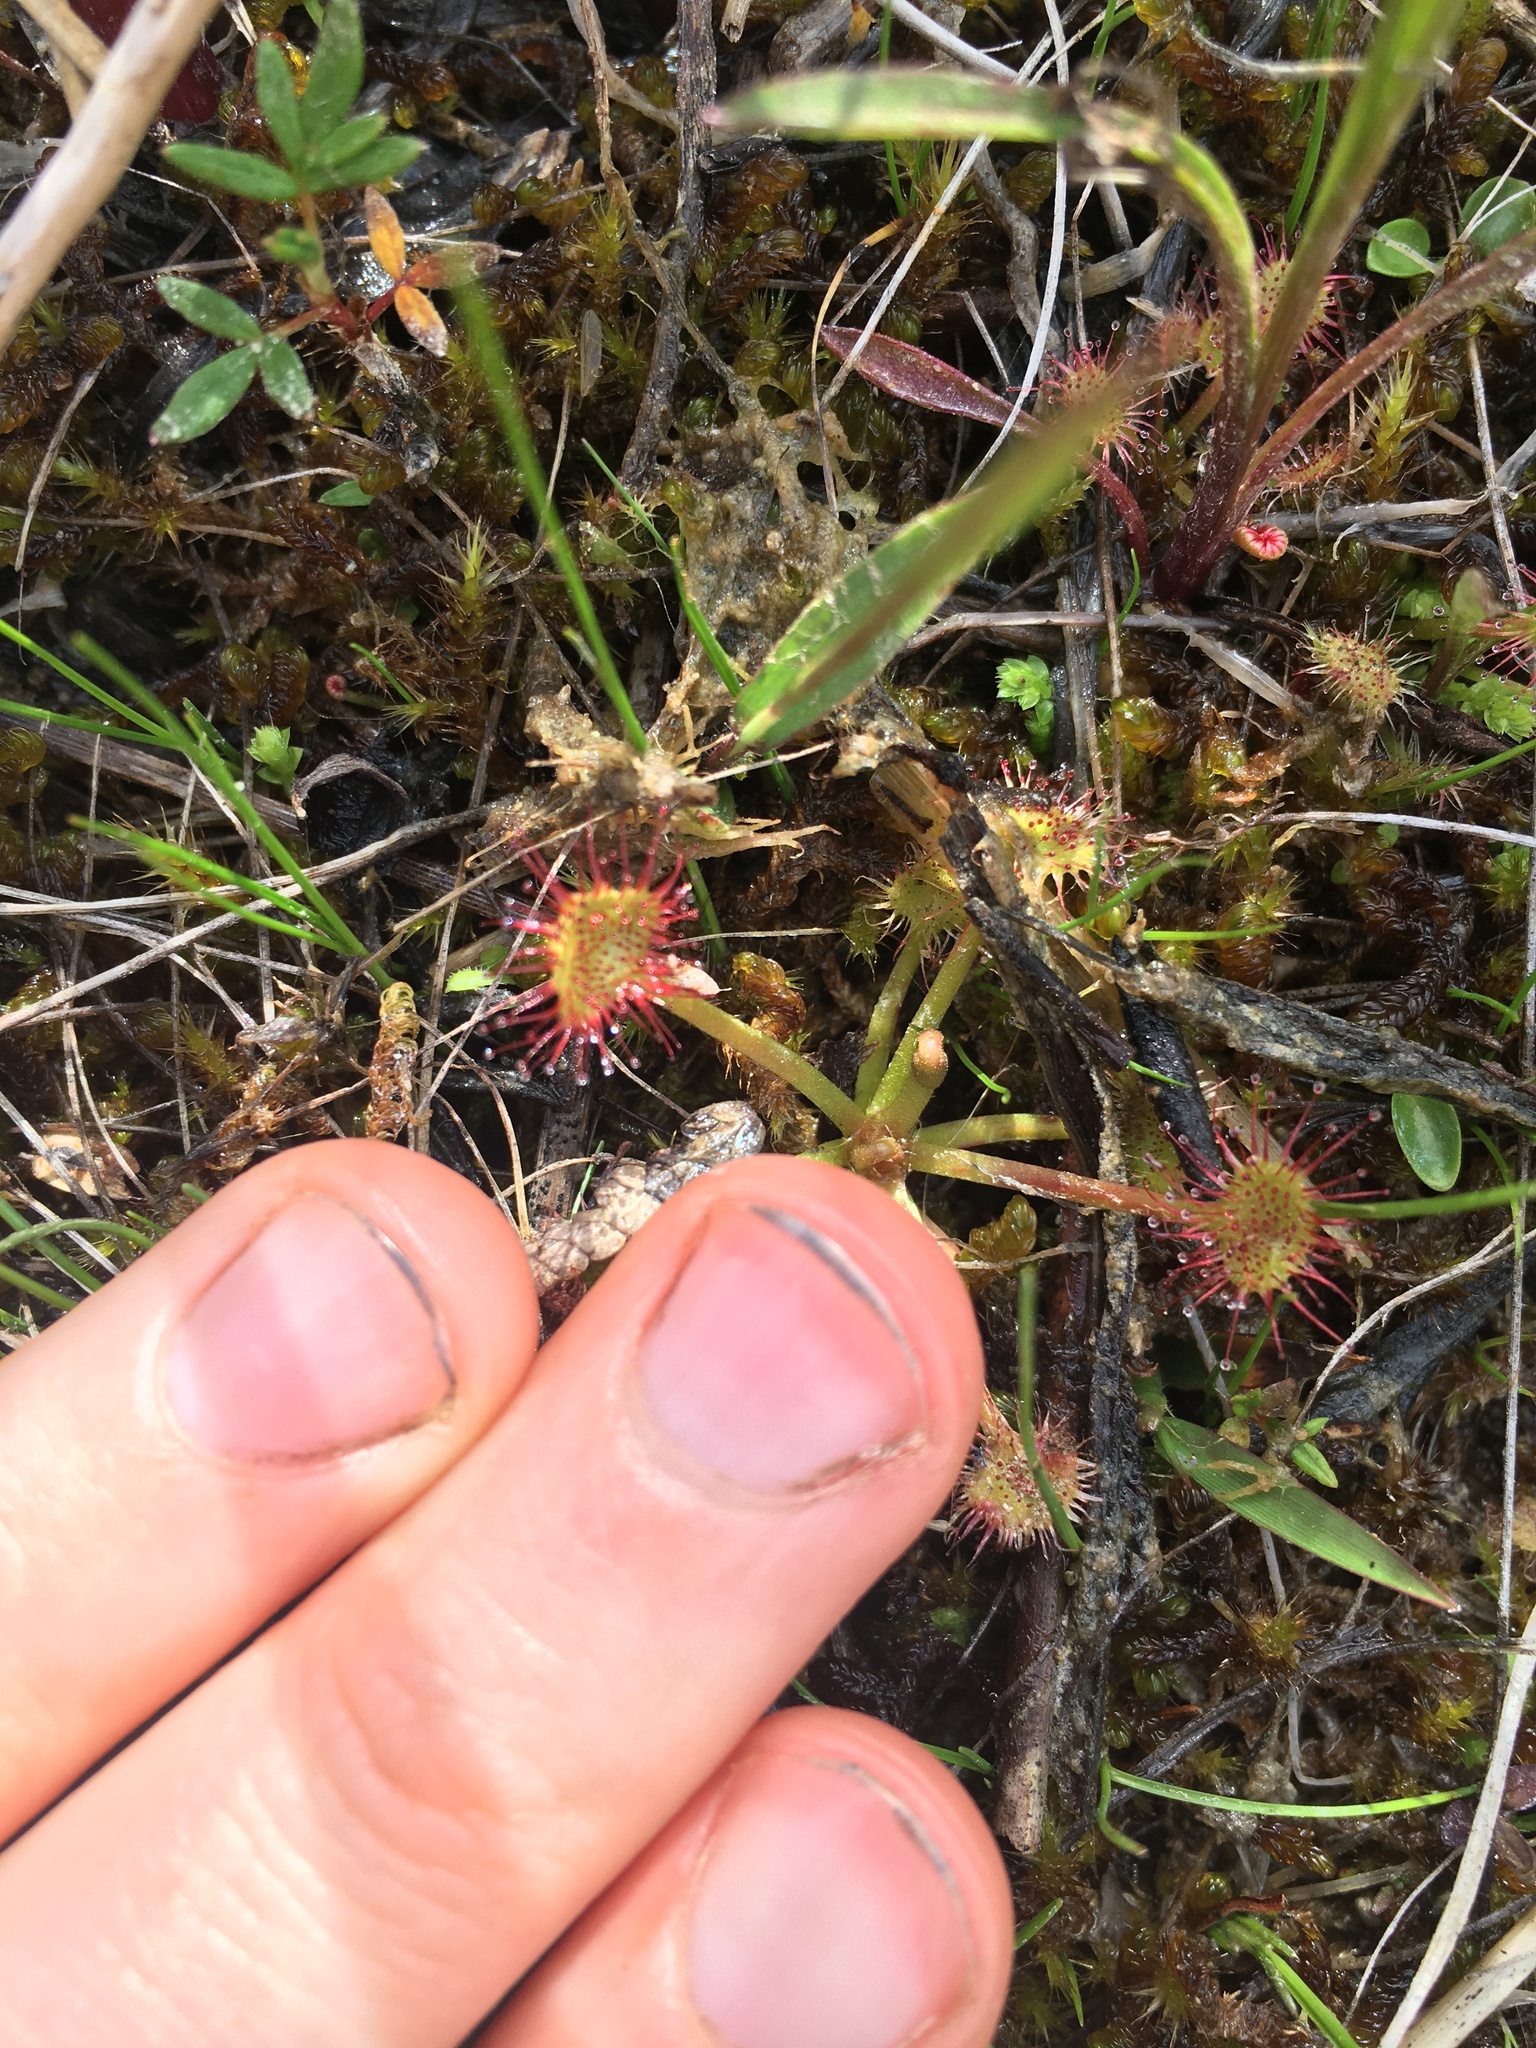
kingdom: Plantae
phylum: Tracheophyta
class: Magnoliopsida
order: Caryophyllales
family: Droseraceae
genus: Drosera
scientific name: Drosera rotundifolia
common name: Round-leaved sundew
